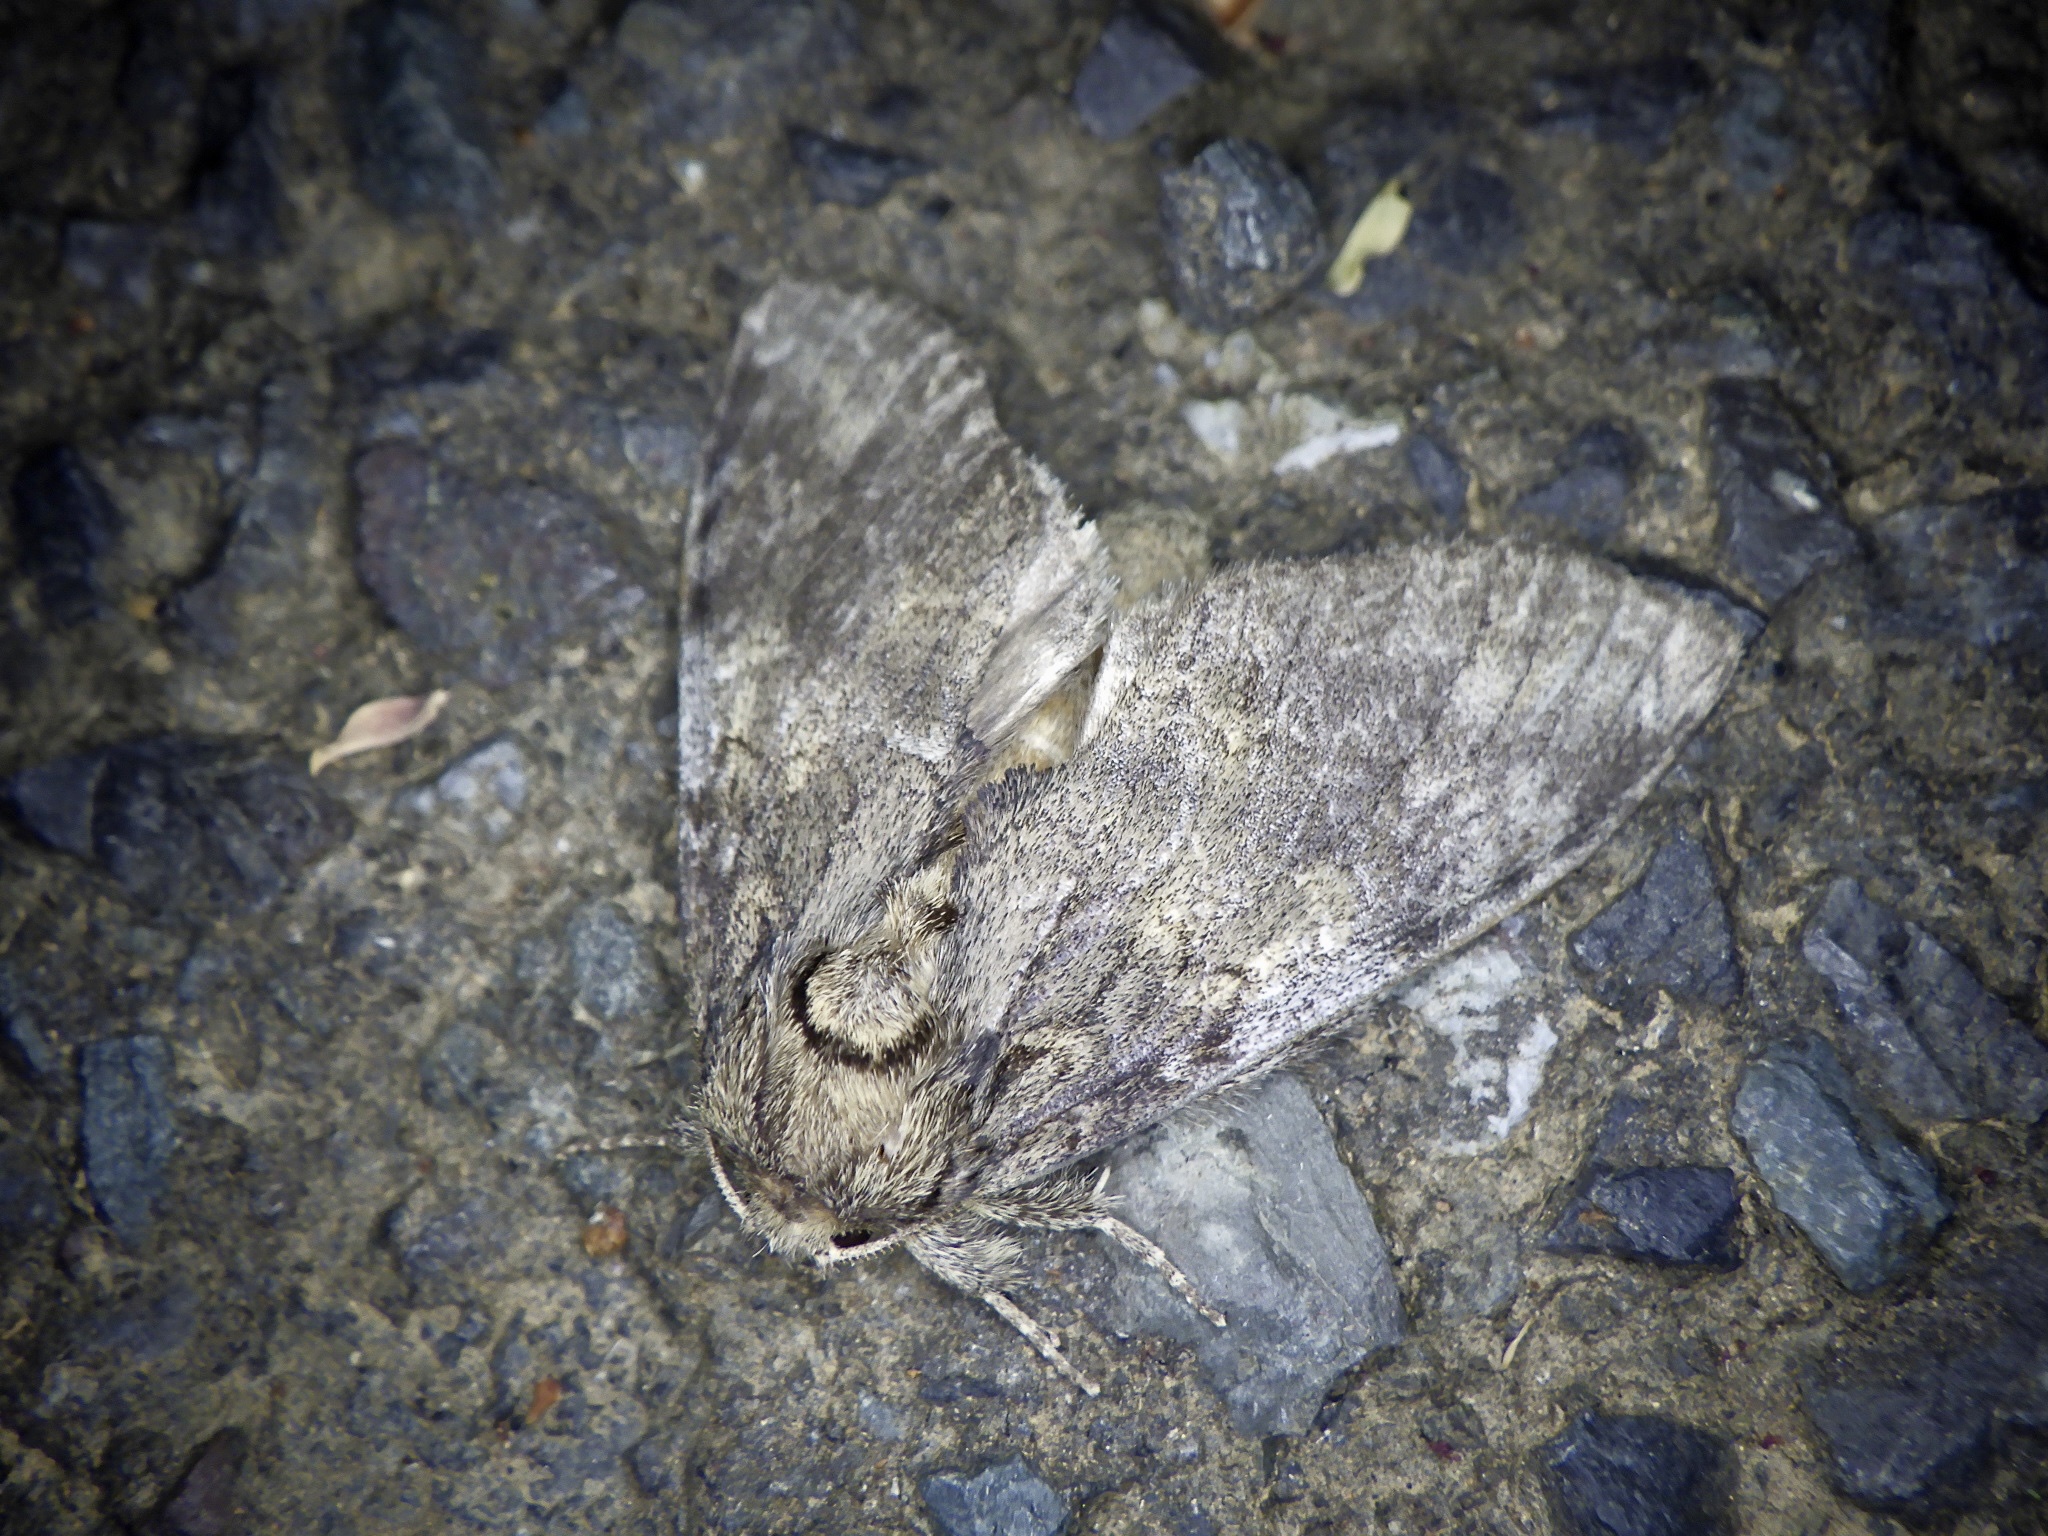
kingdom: Animalia
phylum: Arthropoda
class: Insecta
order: Lepidoptera
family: Notodontidae
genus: Peridea
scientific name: Peridea gigantea
